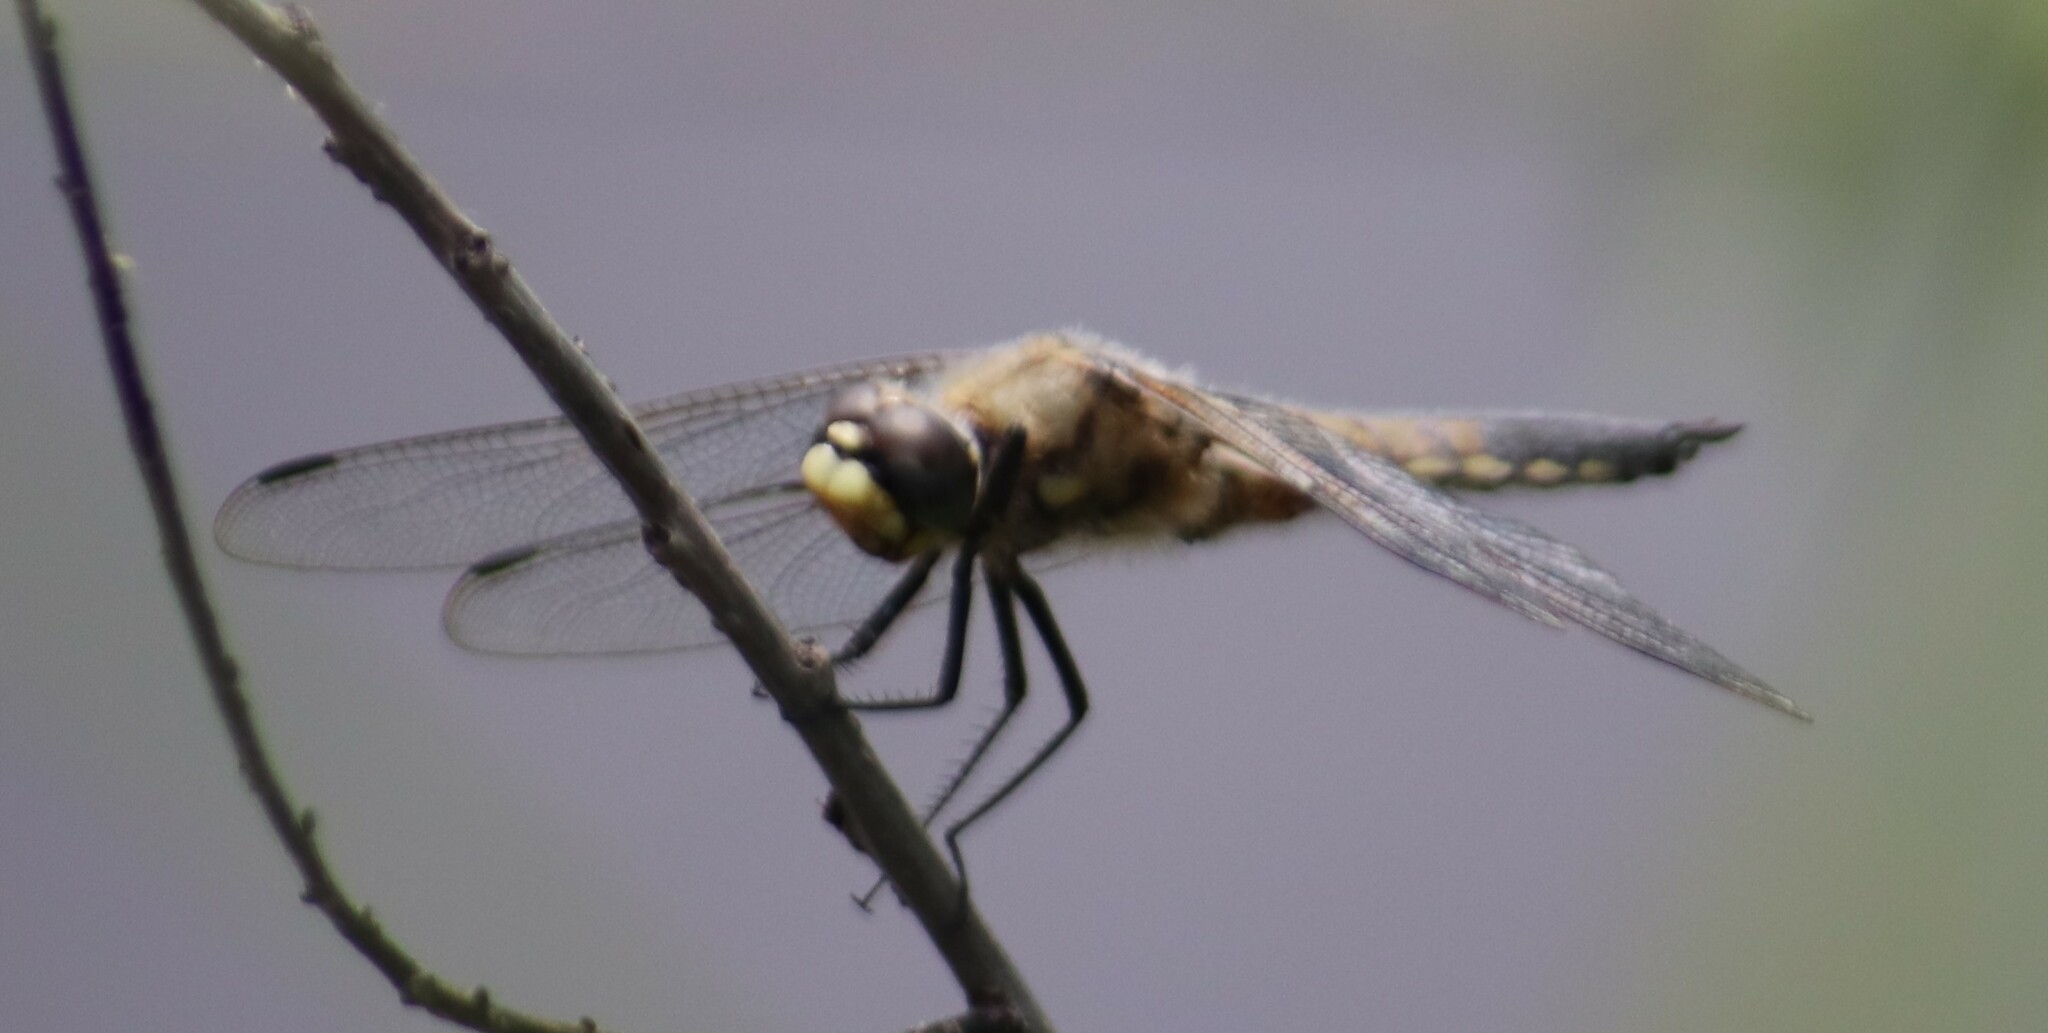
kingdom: Animalia
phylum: Arthropoda
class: Insecta
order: Odonata
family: Libellulidae
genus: Libellula
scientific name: Libellula quadrimaculata
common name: Four-spotted chaser
